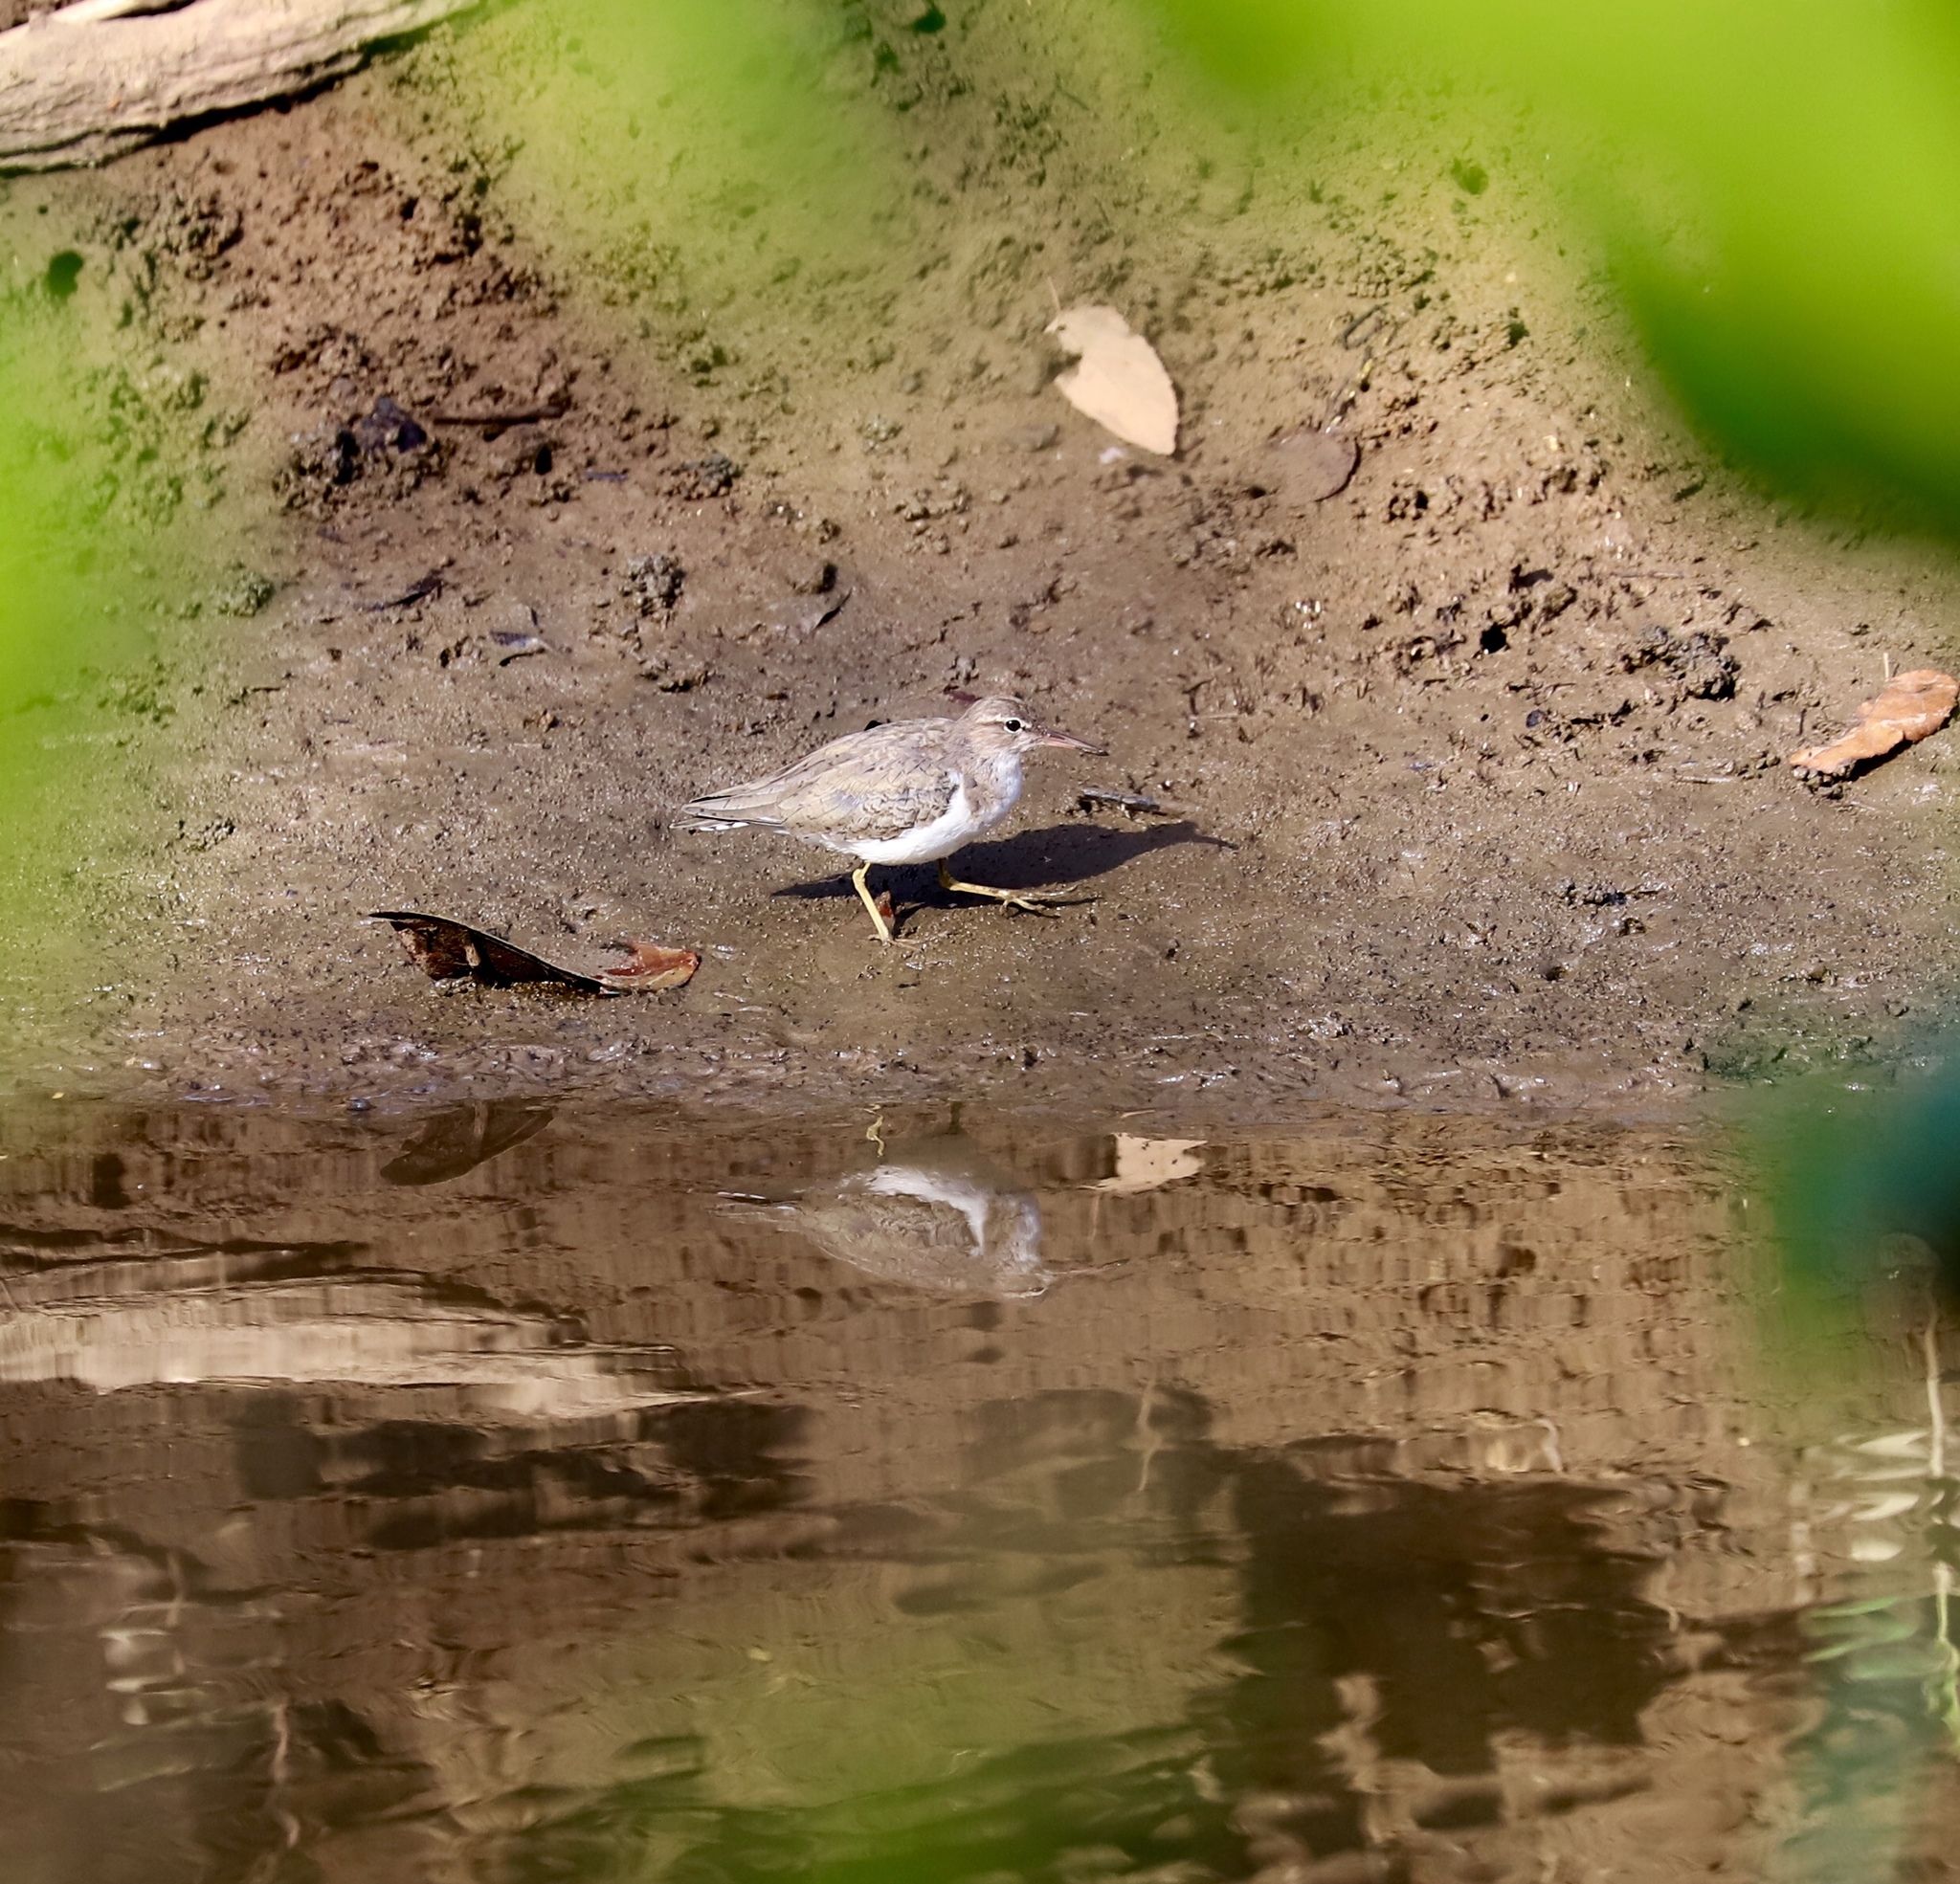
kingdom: Animalia
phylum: Chordata
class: Aves
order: Charadriiformes
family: Scolopacidae
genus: Actitis
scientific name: Actitis macularius
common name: Spotted sandpiper
